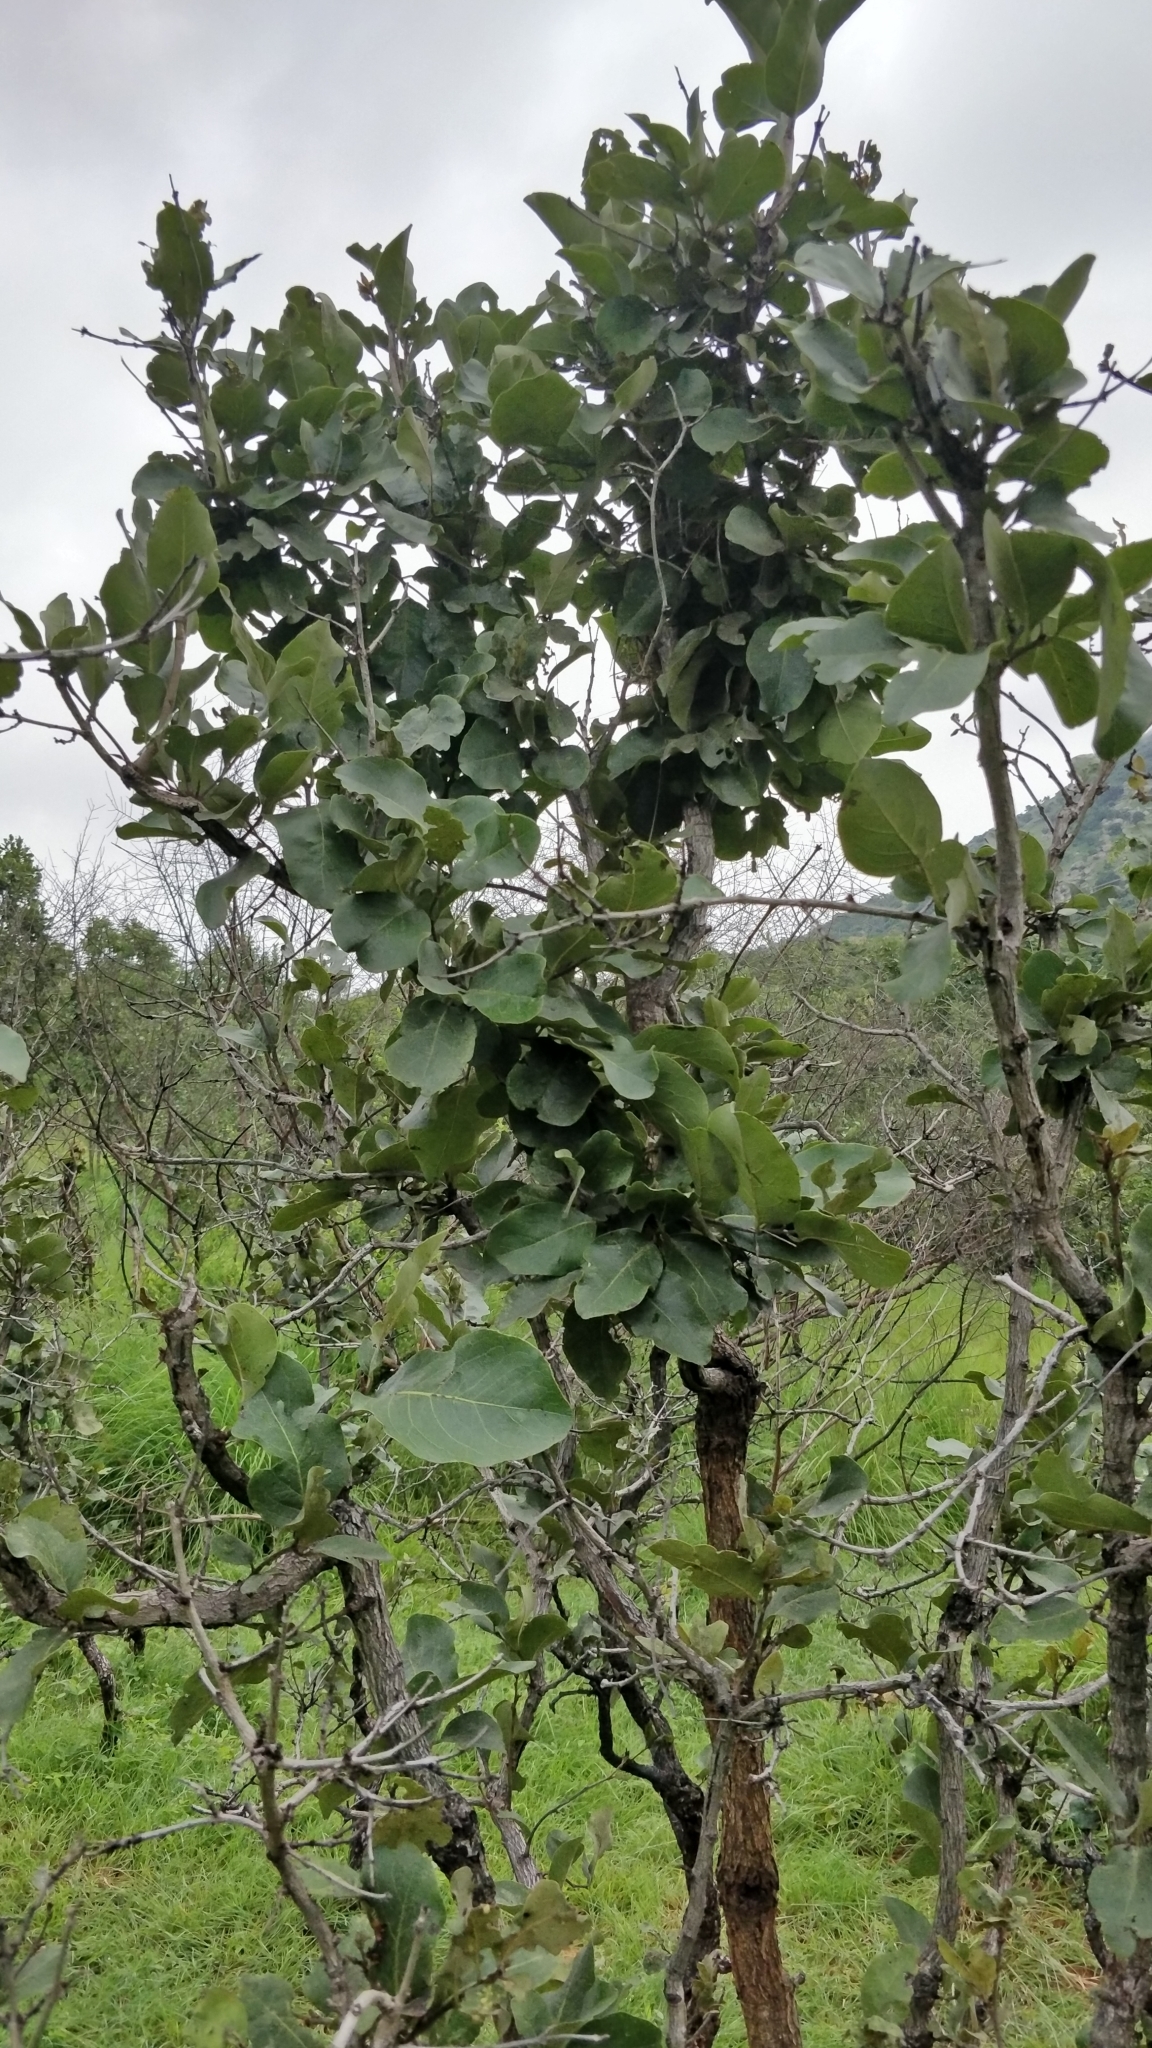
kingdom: Plantae
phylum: Tracheophyta
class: Magnoliopsida
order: Ericales
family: Ebenaceae
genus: Diospyros
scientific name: Diospyros melanoxylon
